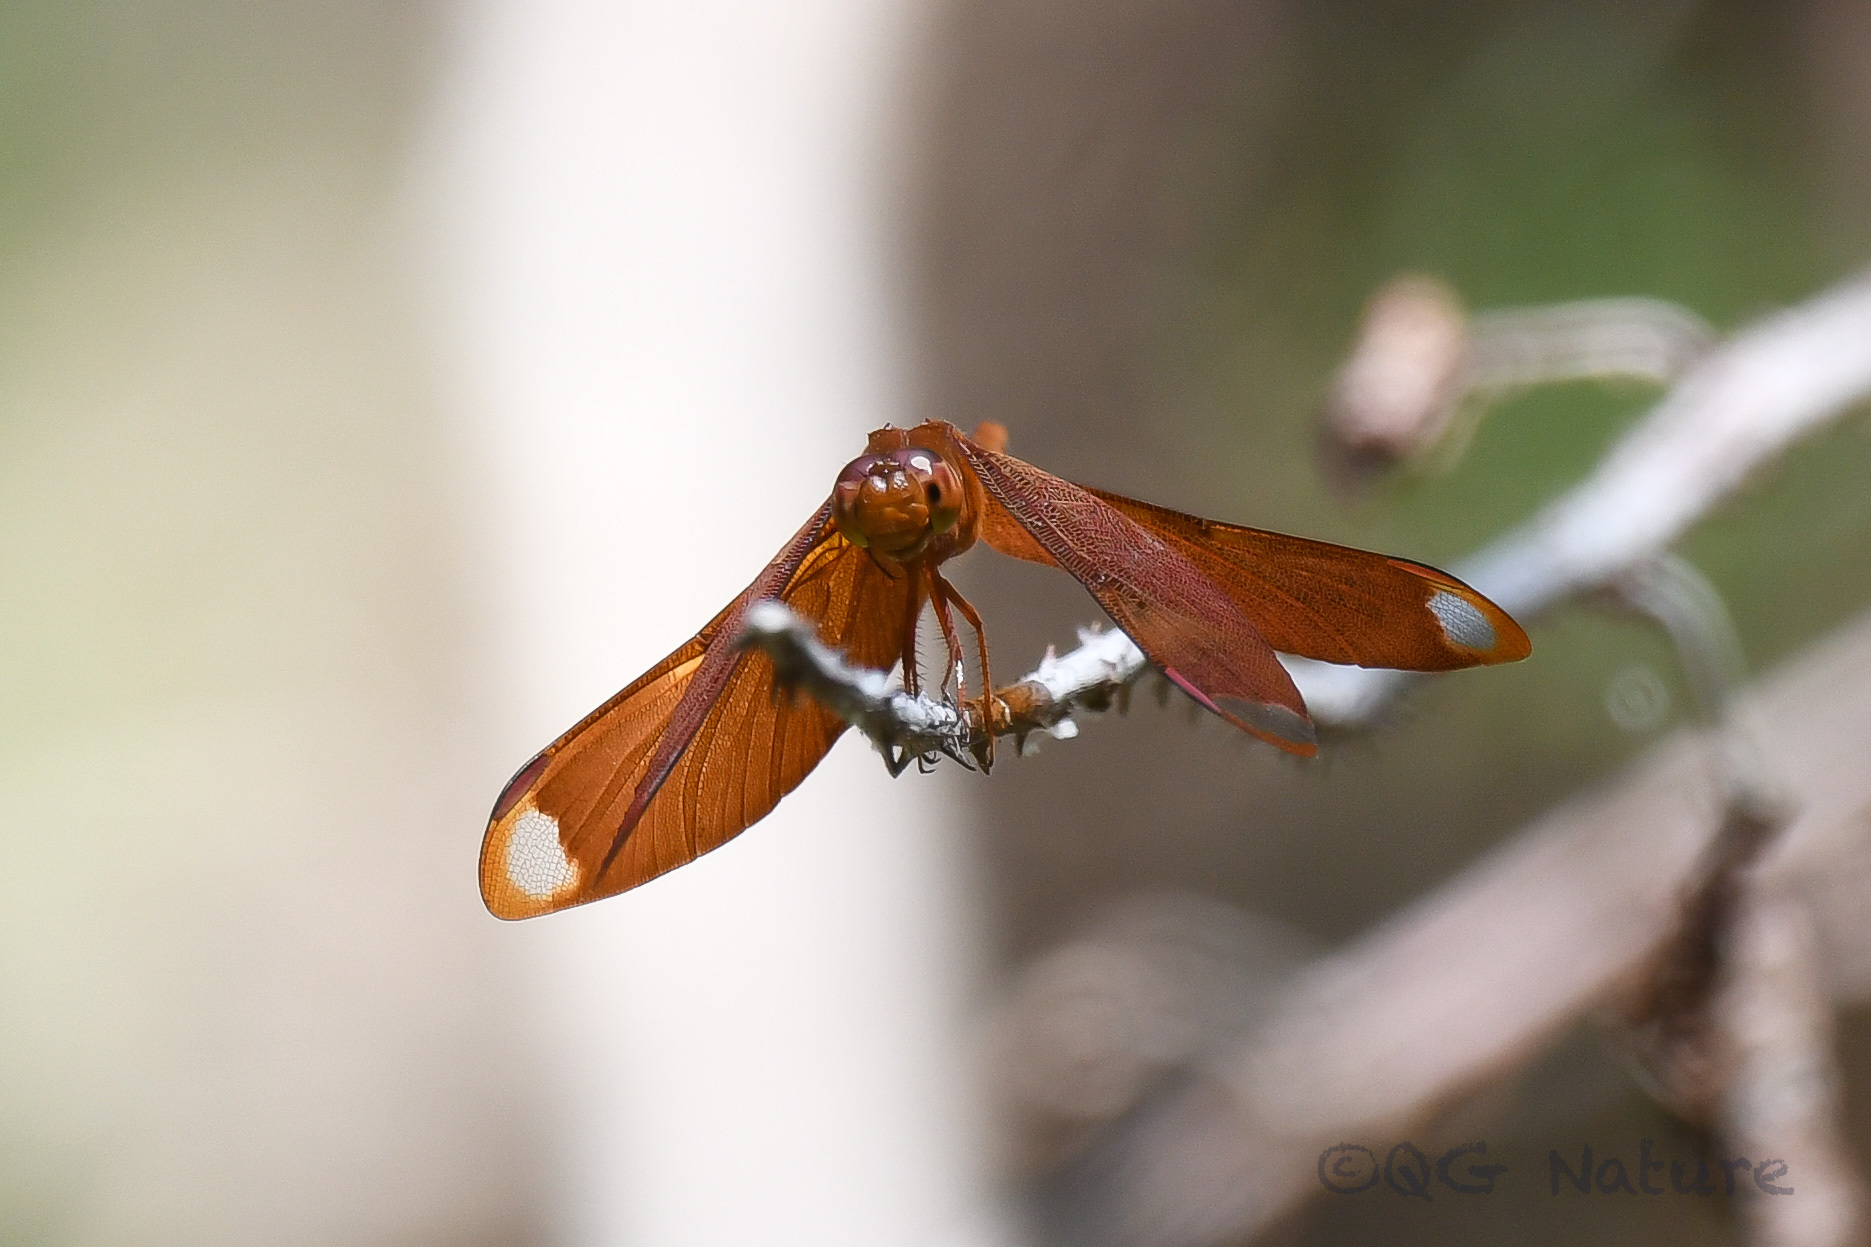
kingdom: Animalia
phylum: Arthropoda
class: Insecta
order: Odonata
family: Libellulidae
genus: Neurothemis
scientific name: Neurothemis fulvia
